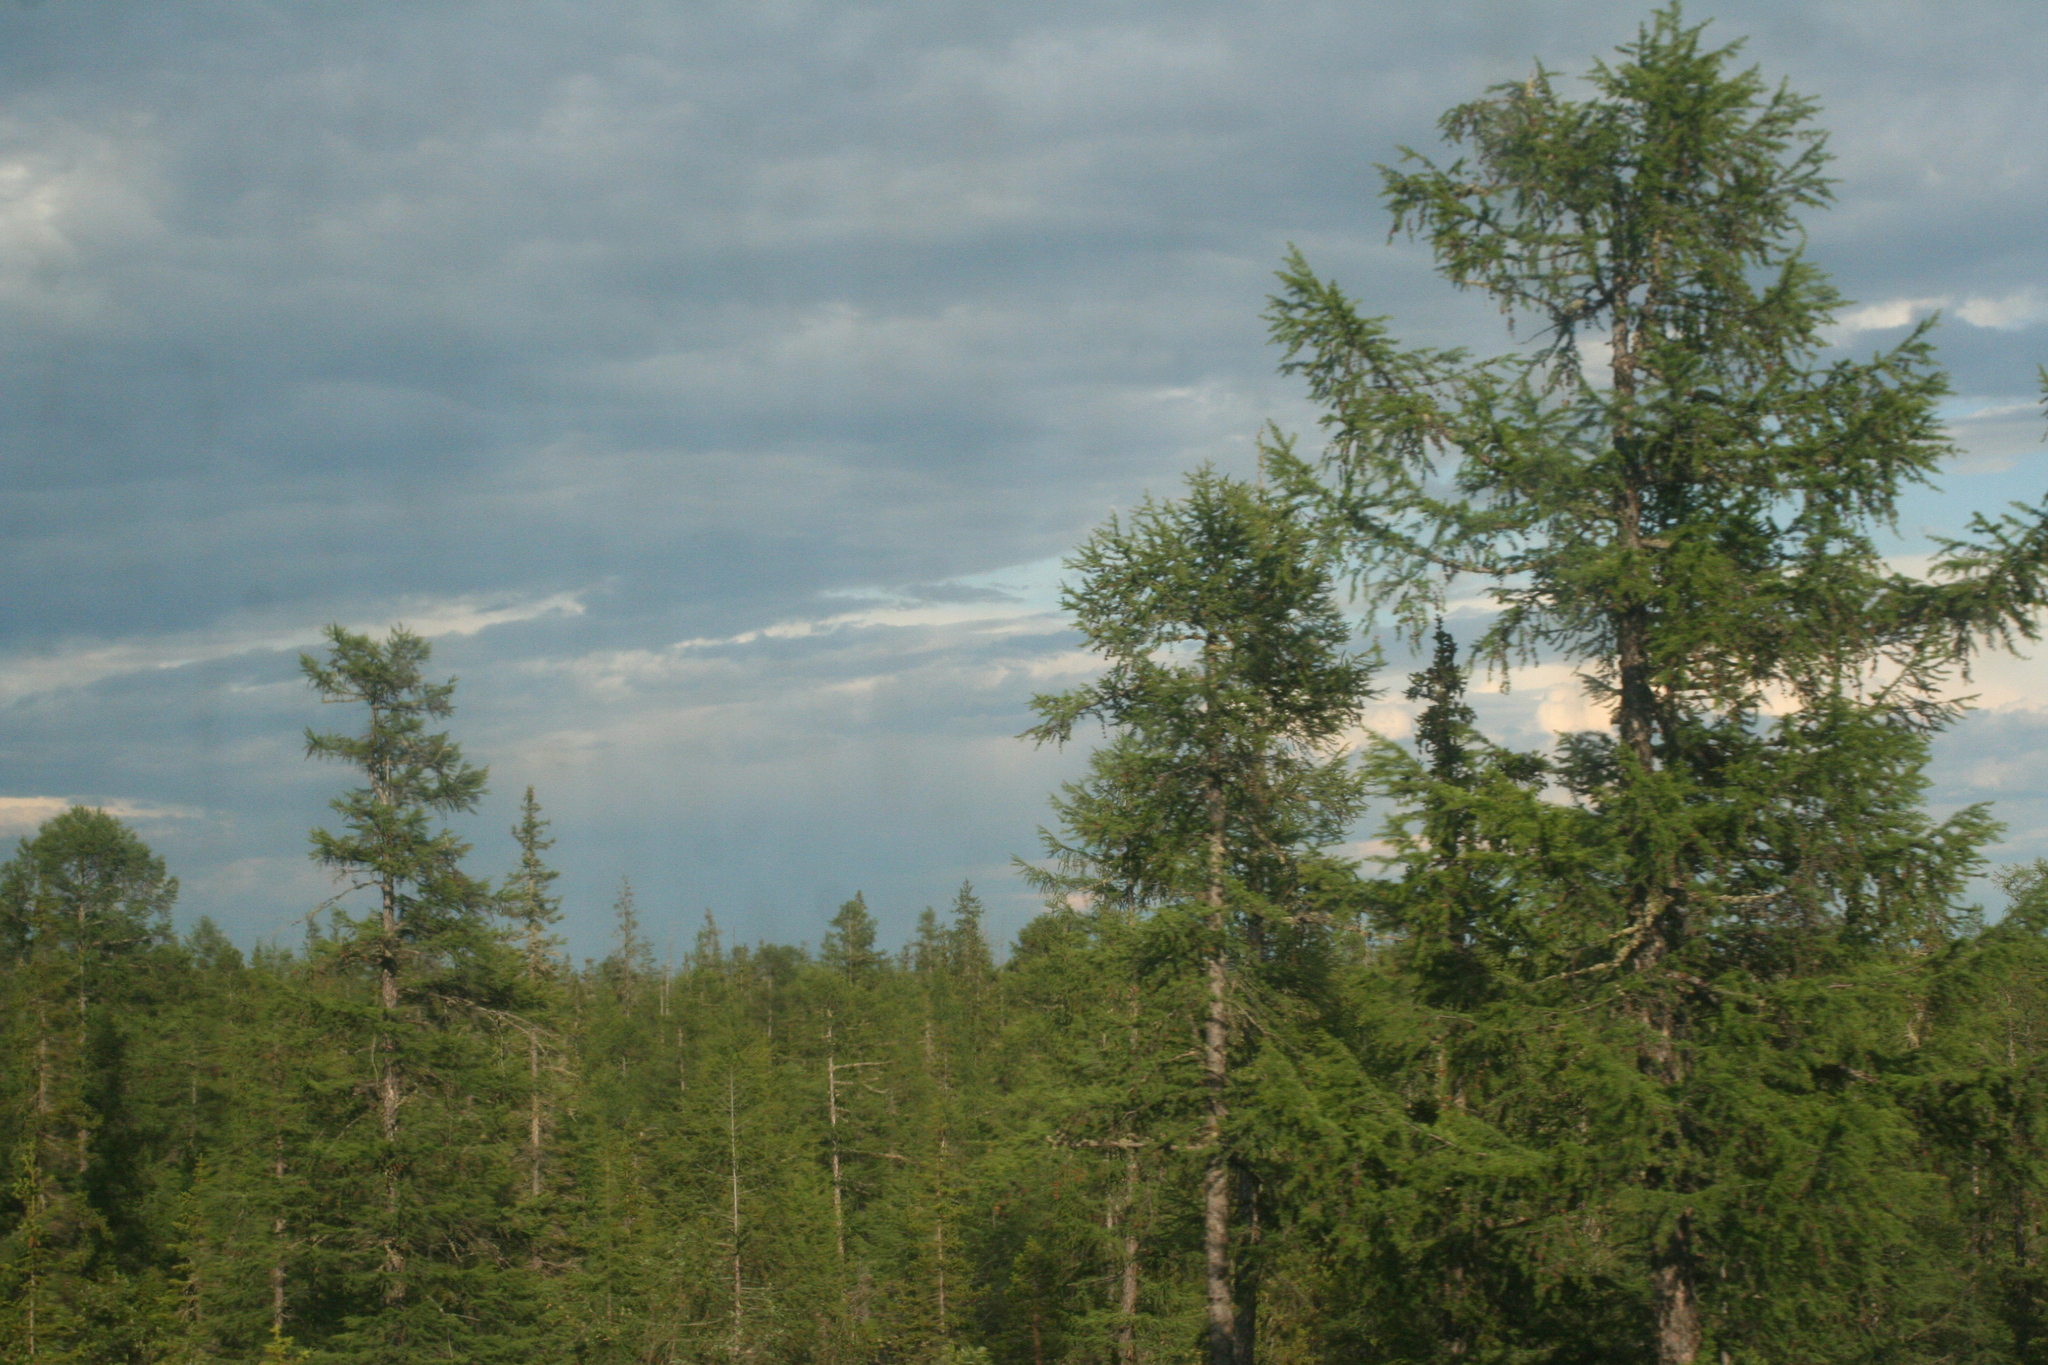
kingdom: Plantae
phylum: Tracheophyta
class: Pinopsida
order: Pinales
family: Pinaceae
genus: Larix
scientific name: Larix gmelinii
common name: Dahurian larch
